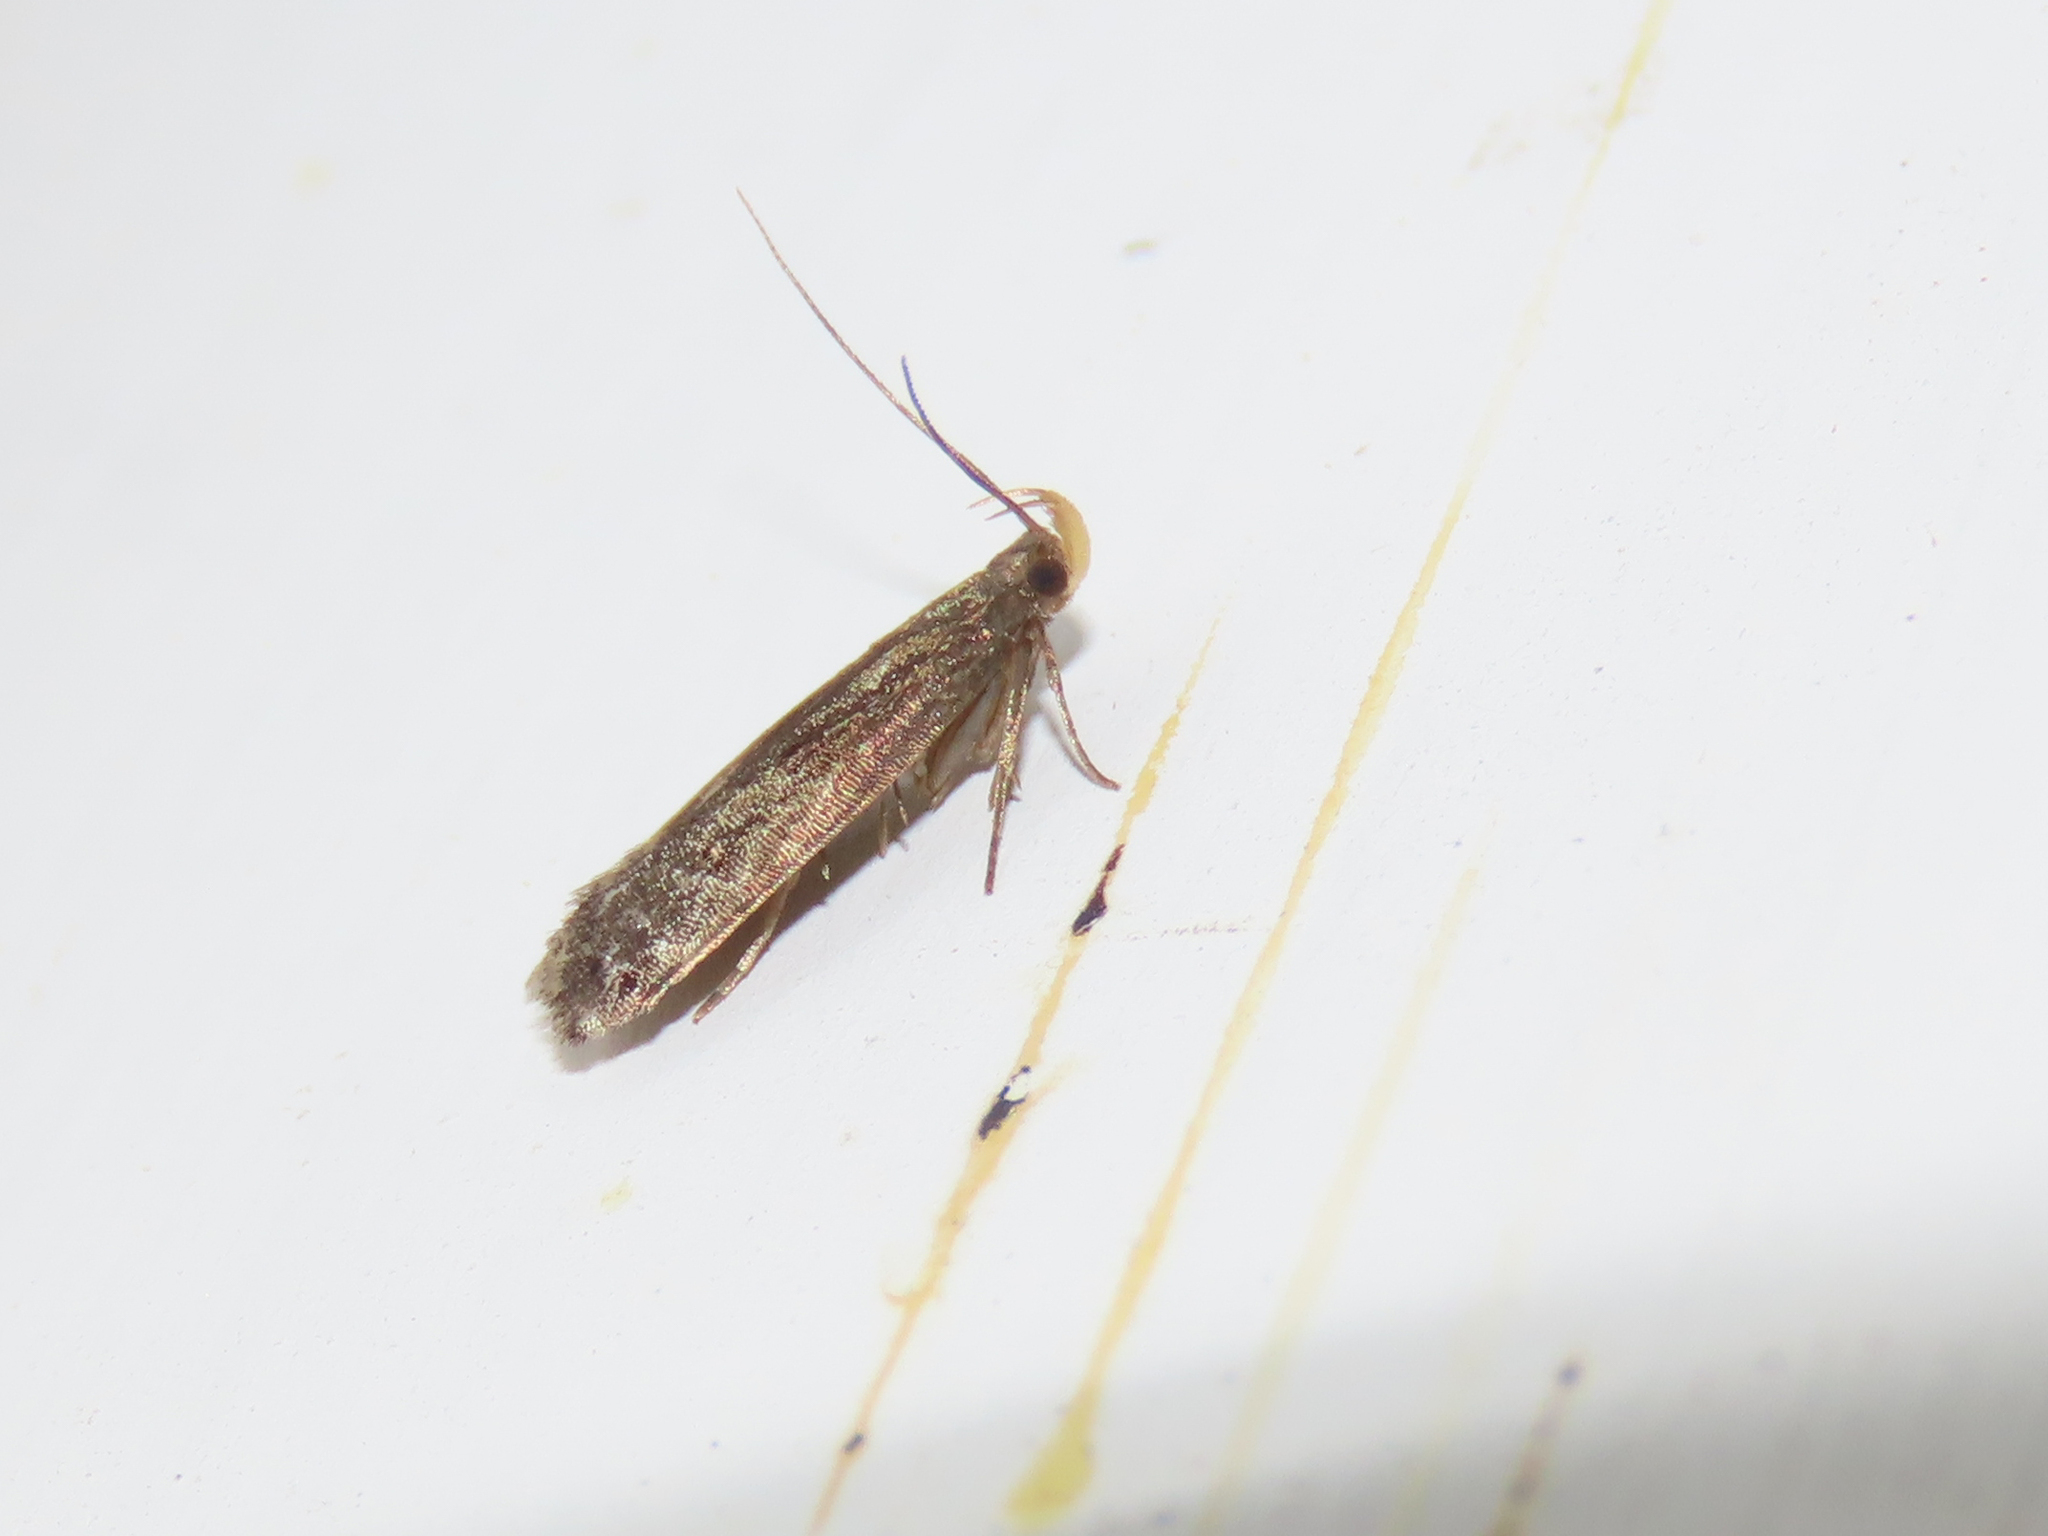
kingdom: Animalia
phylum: Arthropoda
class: Insecta
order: Lepidoptera
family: Gelechiidae
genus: Dichomeris
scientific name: Dichomeris juncidella
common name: Orange-dotted dichomeris moth
